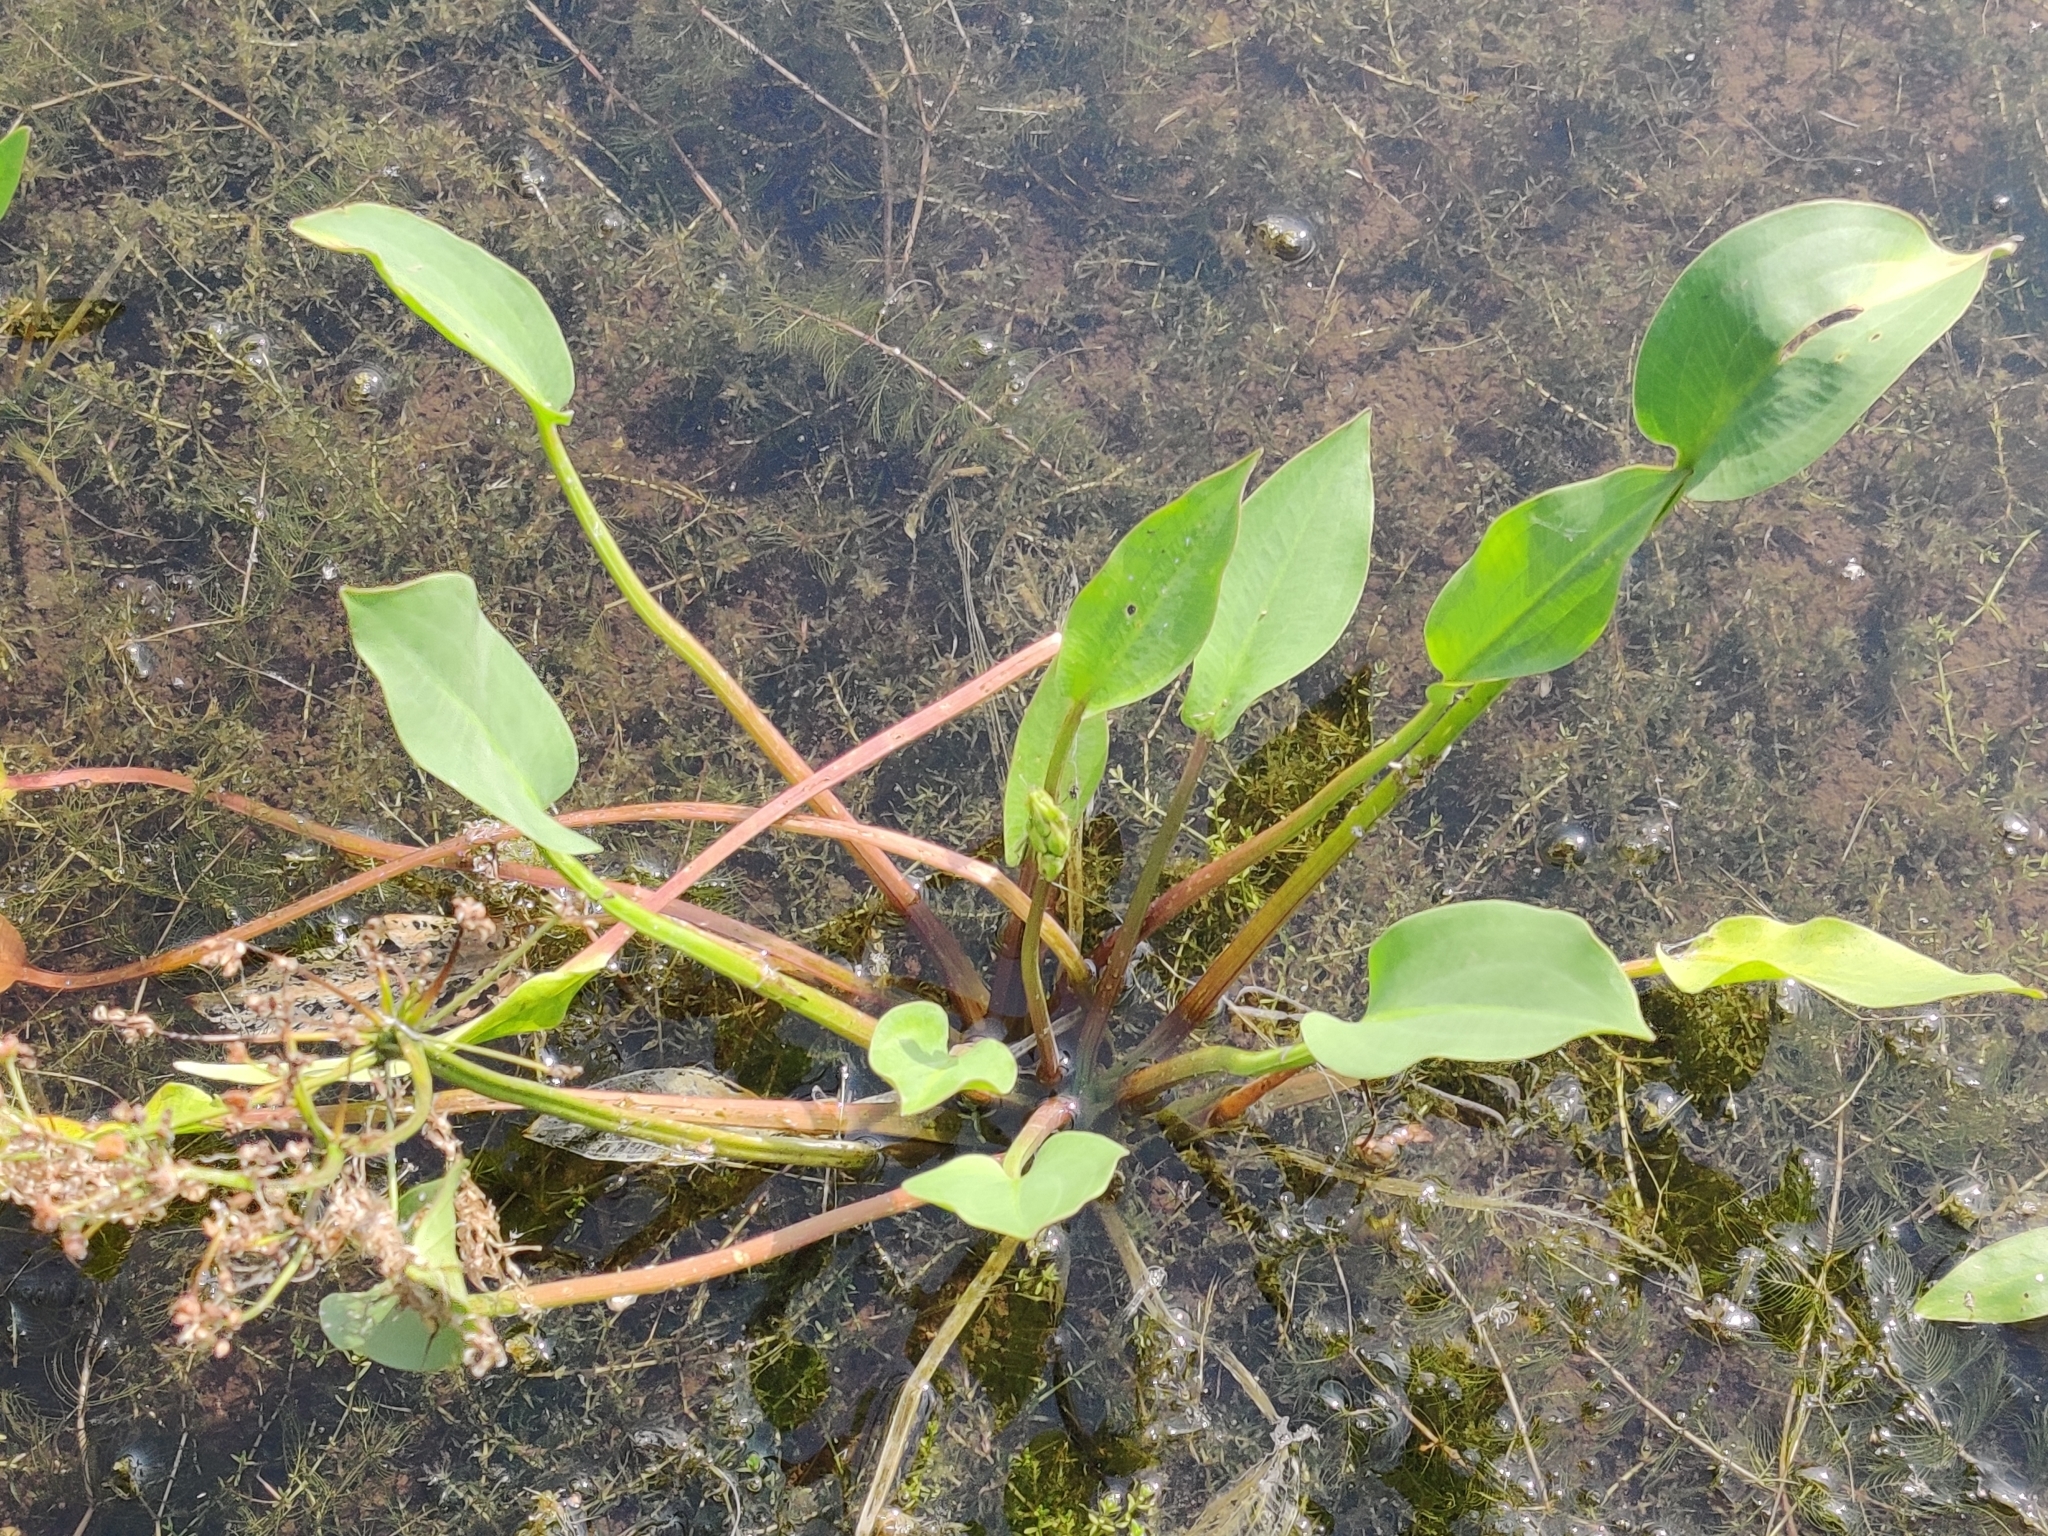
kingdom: Plantae
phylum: Tracheophyta
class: Liliopsida
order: Alismatales
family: Alismataceae
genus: Alisma
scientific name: Alisma plantago-aquatica
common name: Water-plantain
